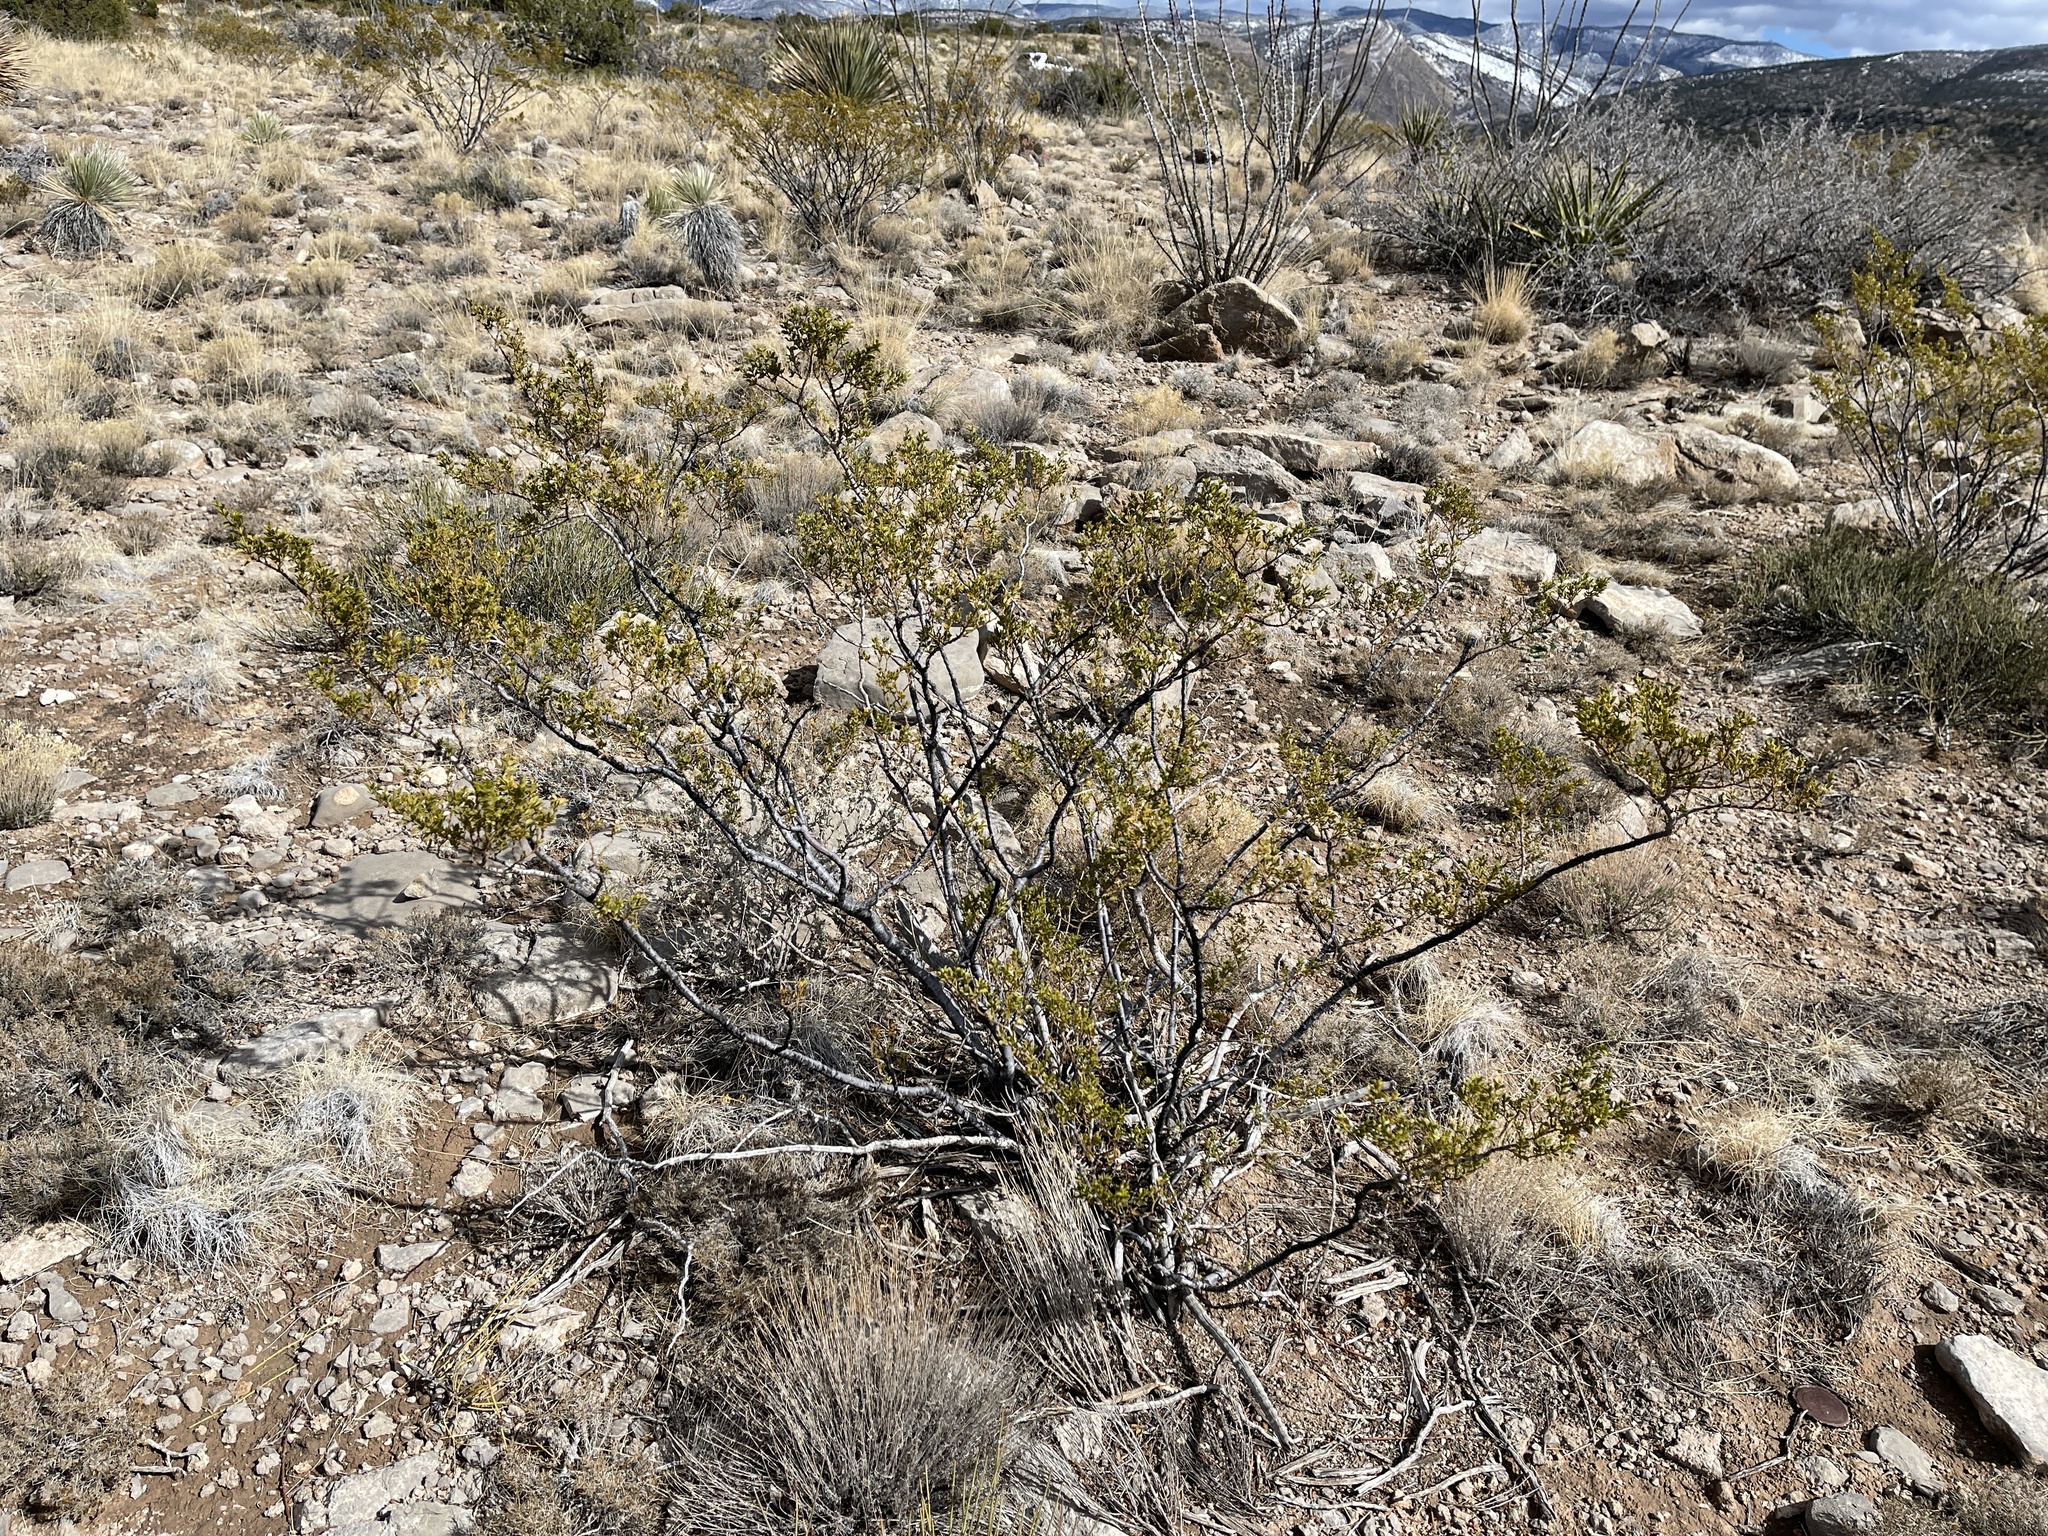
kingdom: Plantae
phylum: Tracheophyta
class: Magnoliopsida
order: Zygophyllales
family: Zygophyllaceae
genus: Larrea
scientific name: Larrea tridentata
